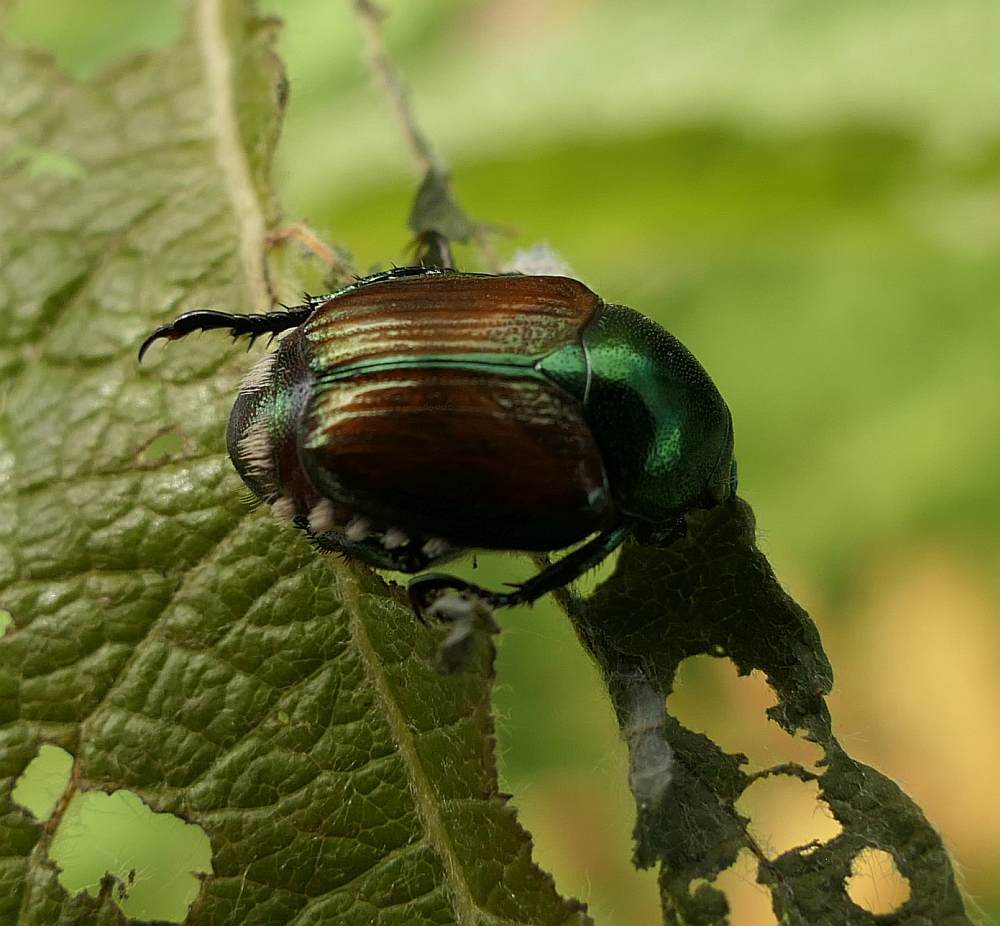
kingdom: Animalia
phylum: Arthropoda
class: Insecta
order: Coleoptera
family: Scarabaeidae
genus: Popillia
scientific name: Popillia japonica
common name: Japanese beetle
